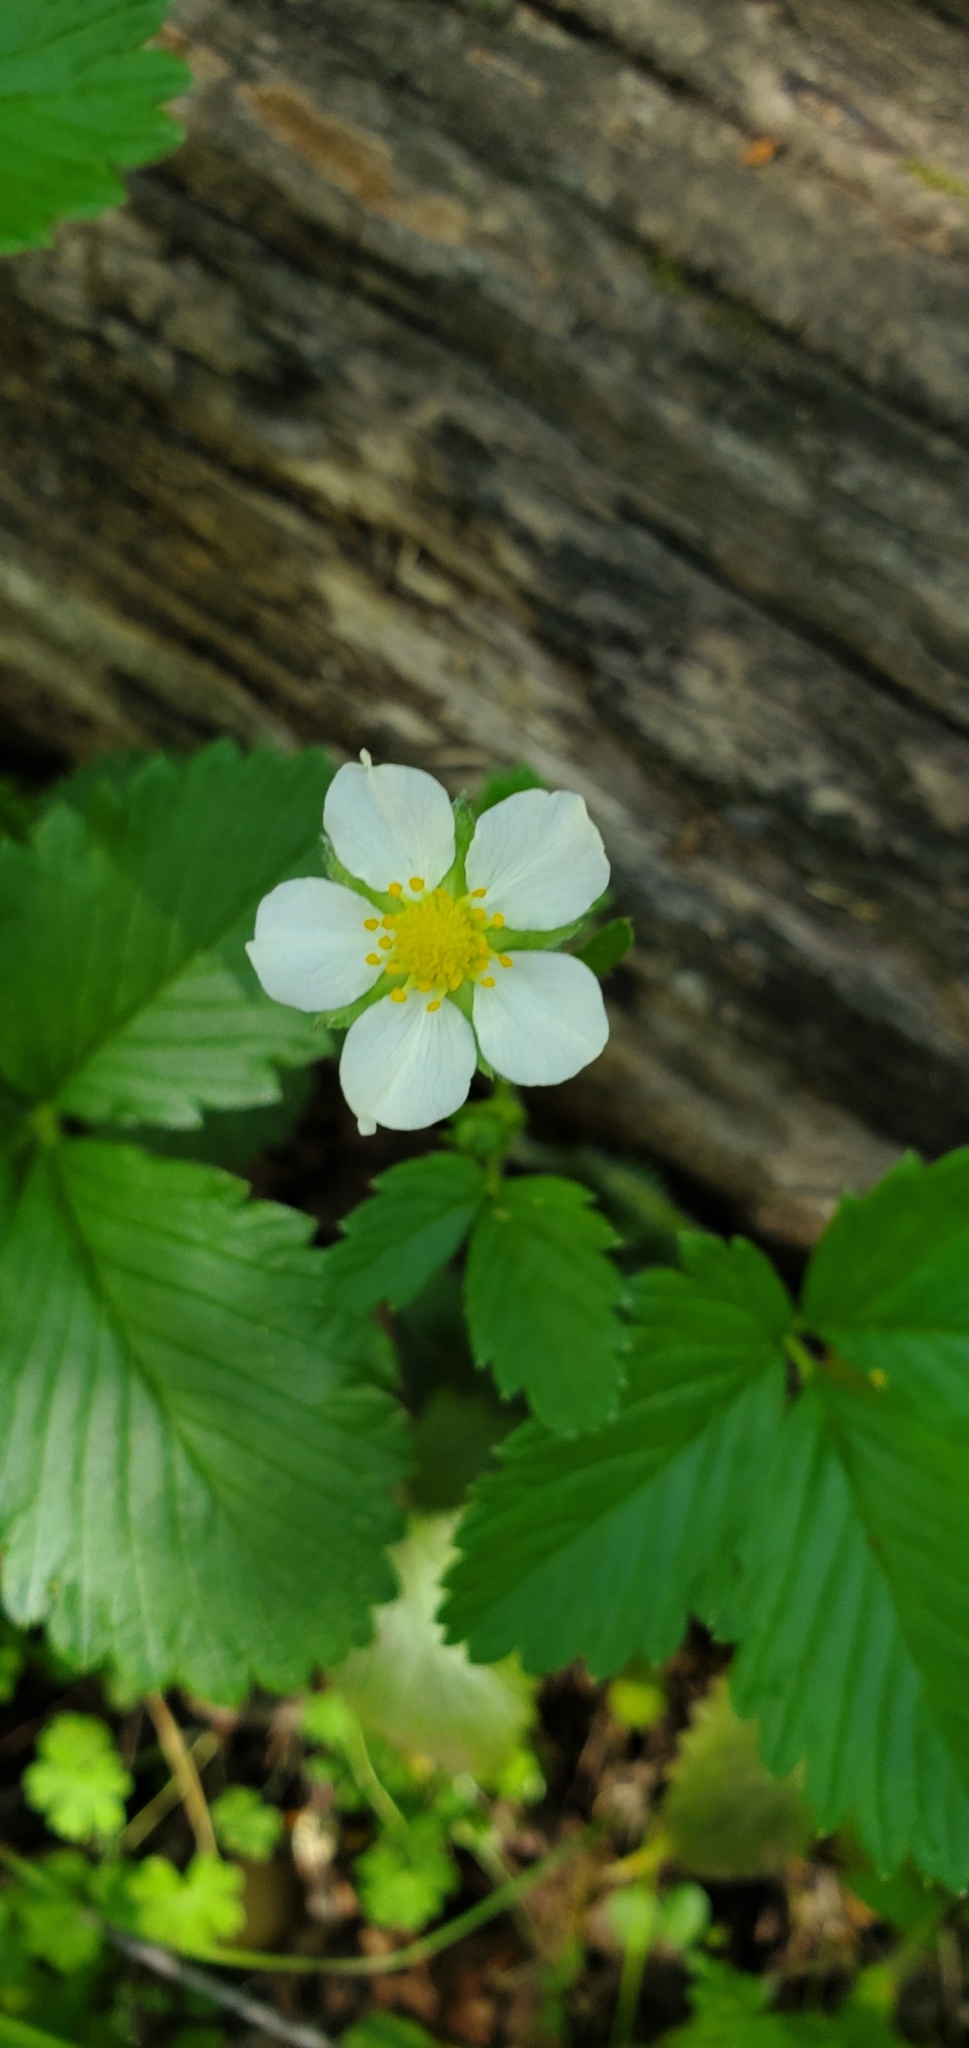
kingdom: Plantae
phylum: Tracheophyta
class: Magnoliopsida
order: Rosales
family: Rosaceae
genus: Fragaria
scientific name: Fragaria vesca
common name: Wild strawberry
